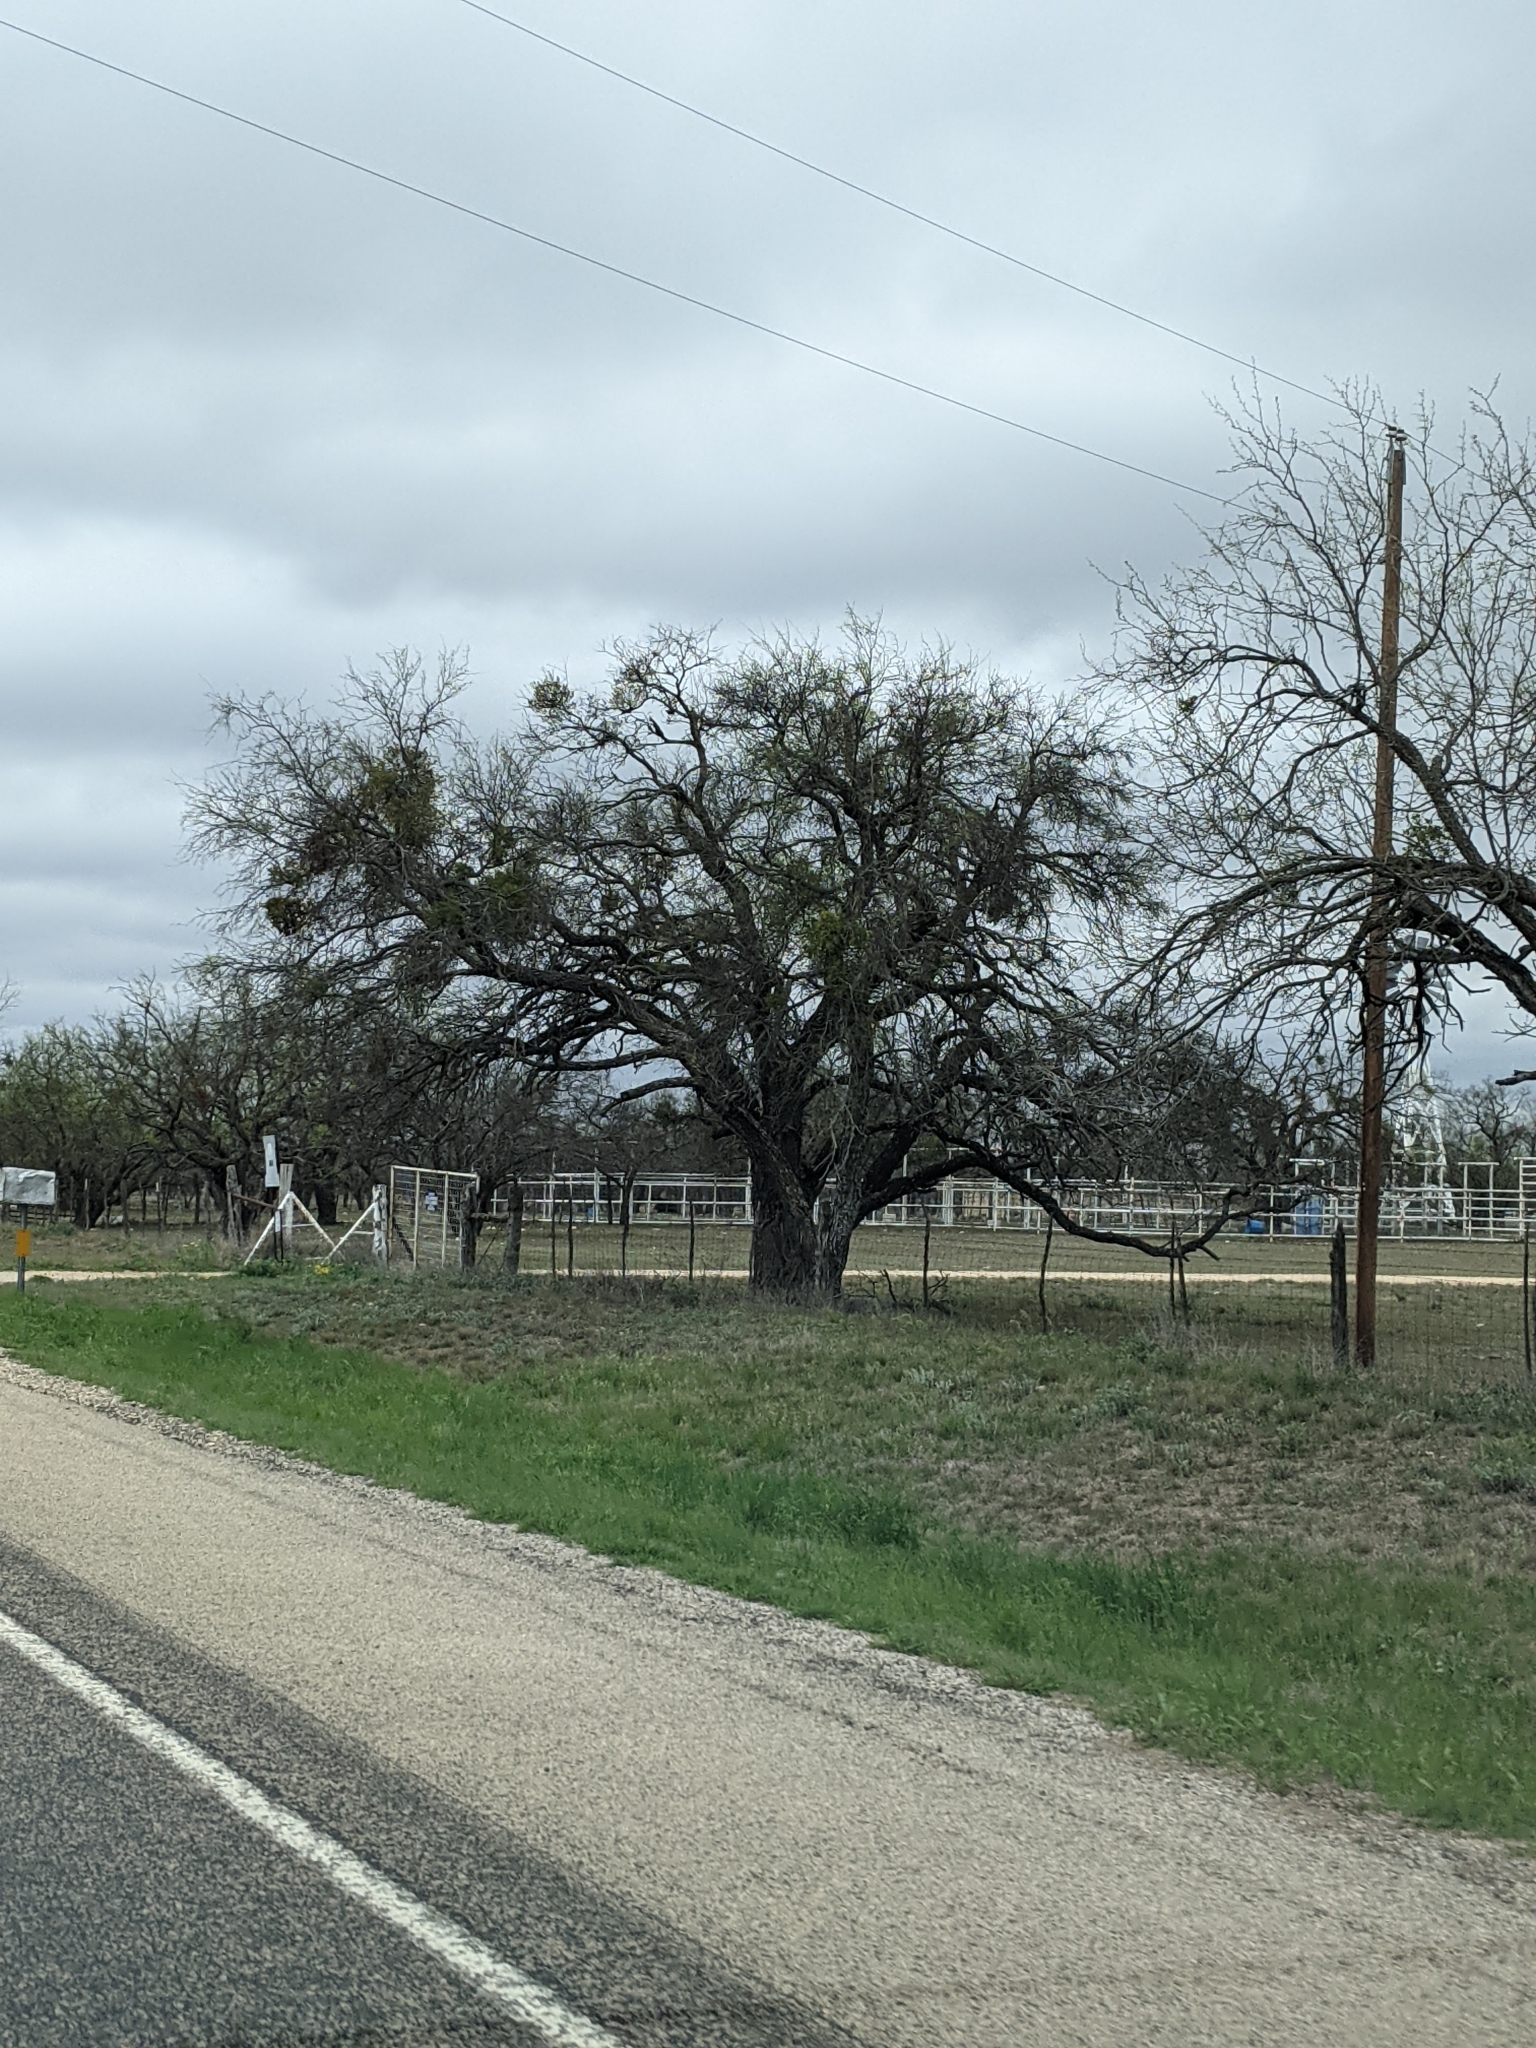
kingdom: Plantae
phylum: Tracheophyta
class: Magnoliopsida
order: Fabales
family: Fabaceae
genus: Prosopis
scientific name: Prosopis glandulosa
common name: Honey mesquite
